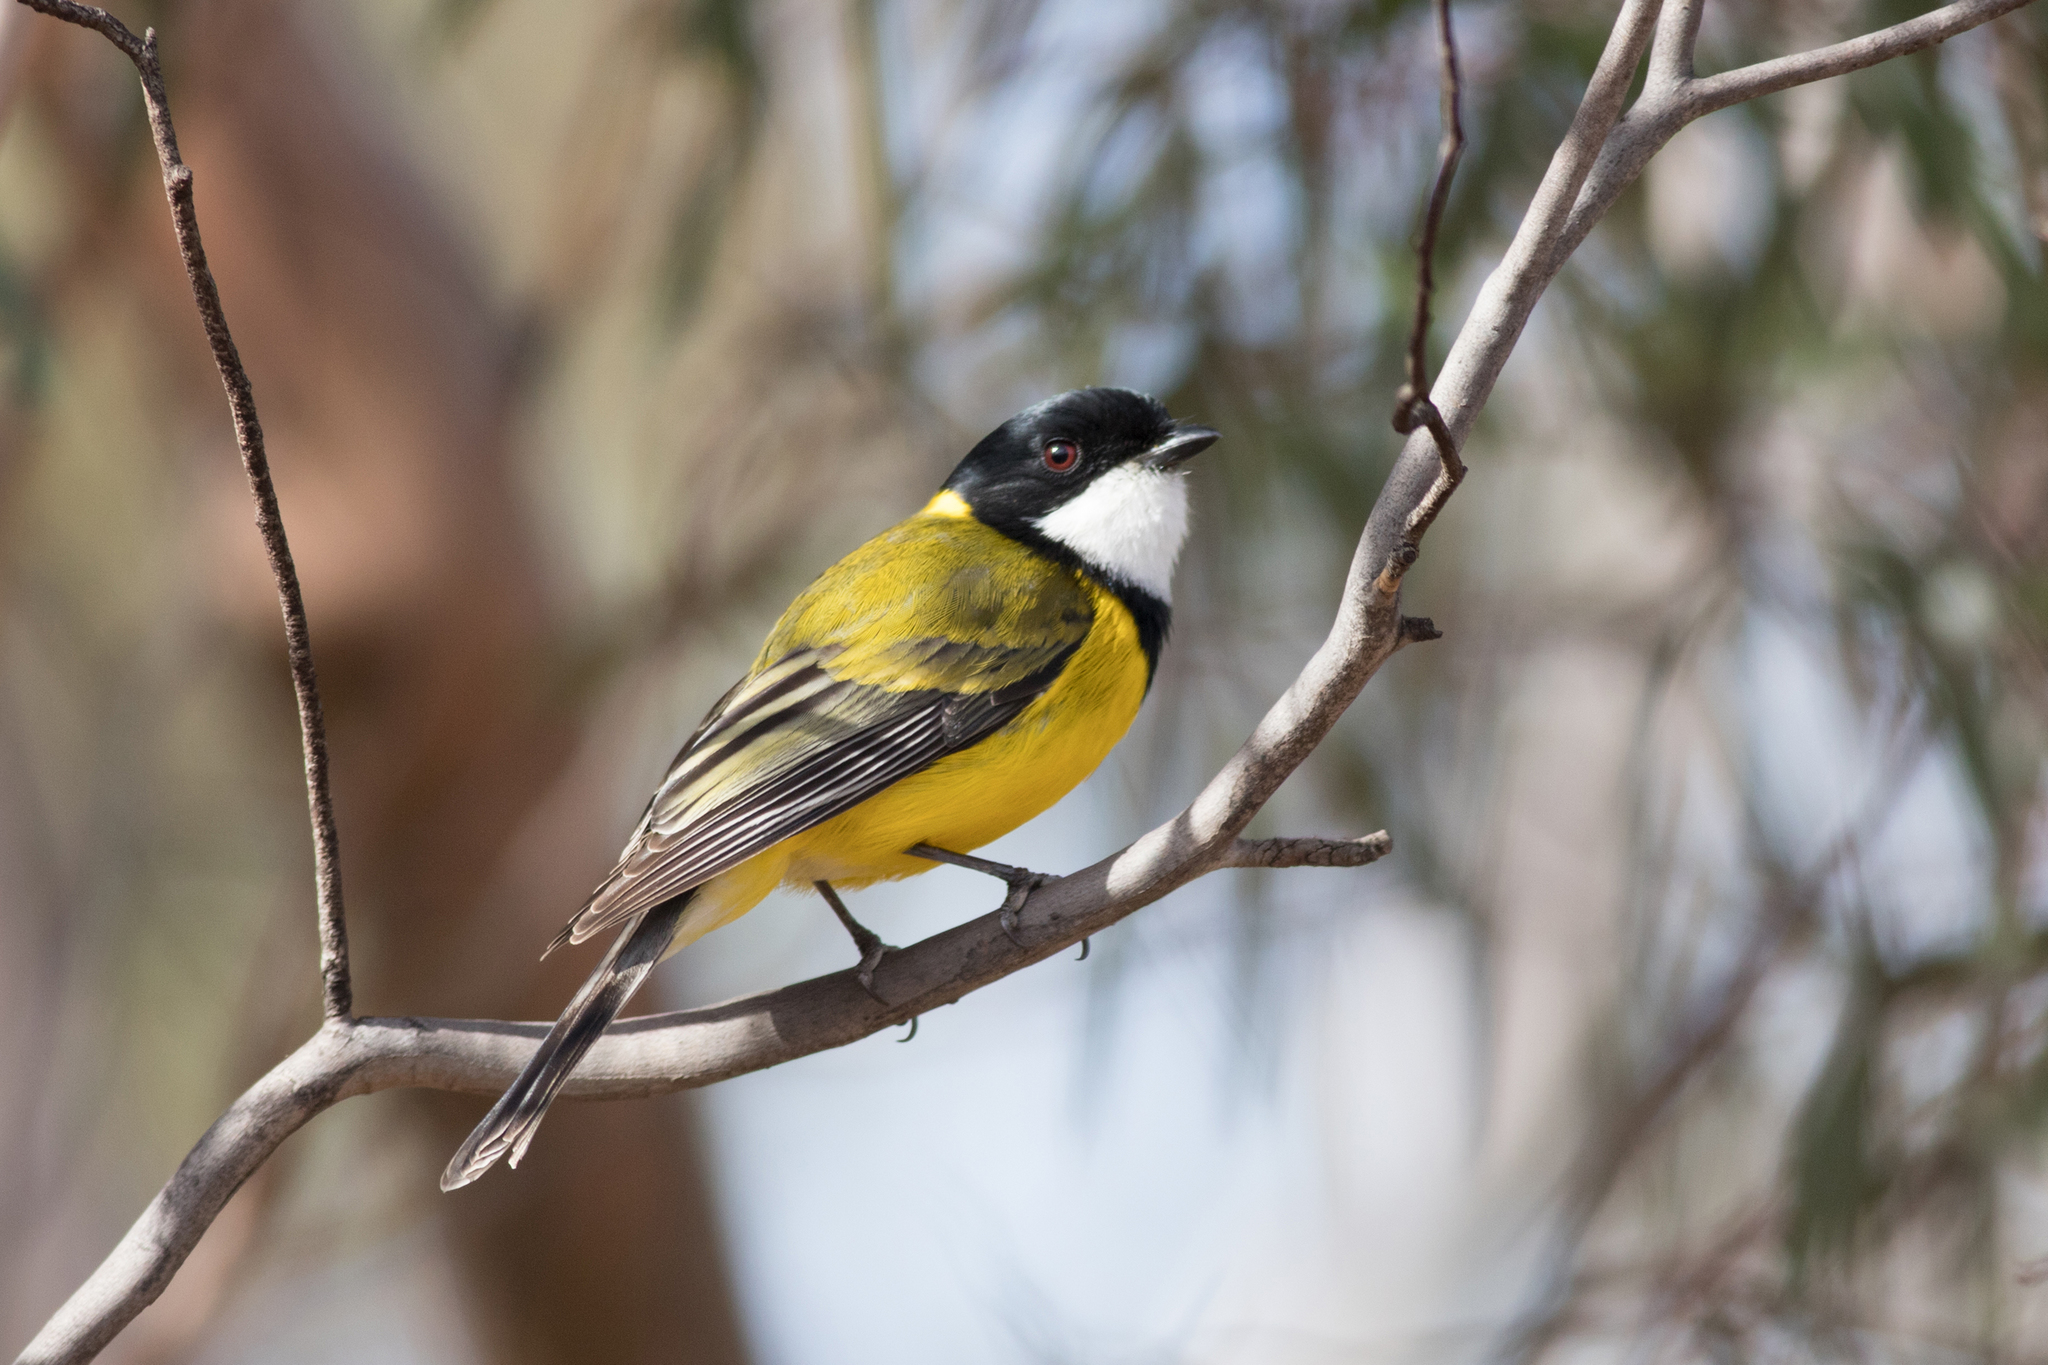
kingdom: Animalia
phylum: Chordata
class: Aves
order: Passeriformes
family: Pachycephalidae
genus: Pachycephala
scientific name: Pachycephala fuliginosa
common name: Western whistler
